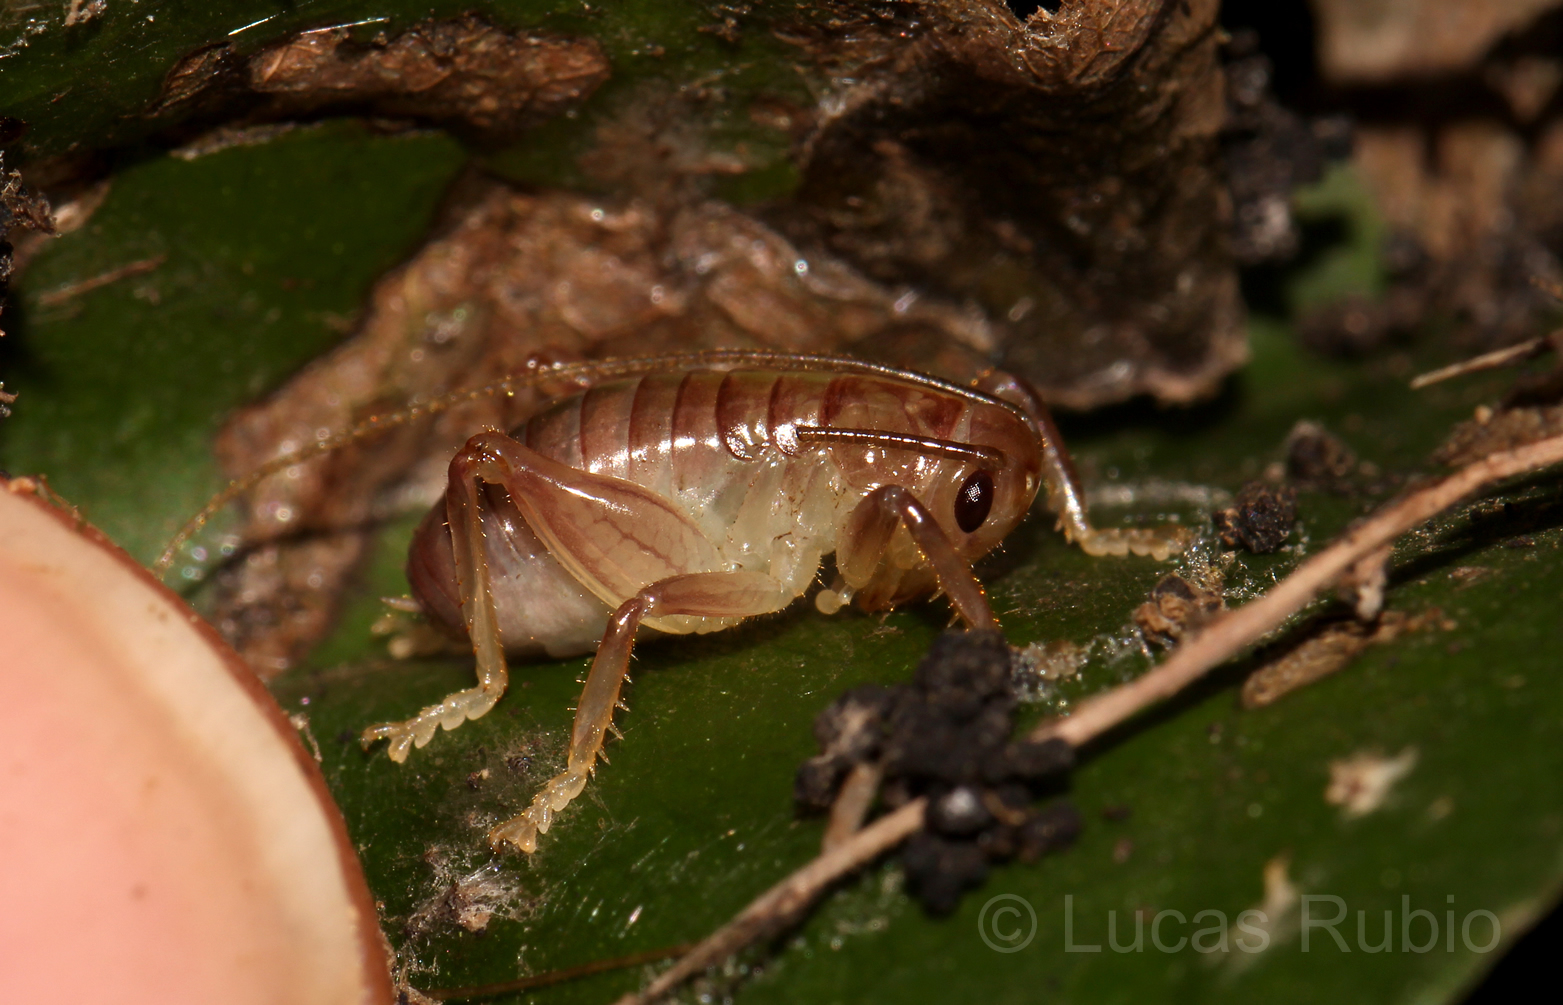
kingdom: Animalia
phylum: Arthropoda
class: Insecta
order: Orthoptera
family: Gryllacrididae
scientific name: Gryllacrididae
